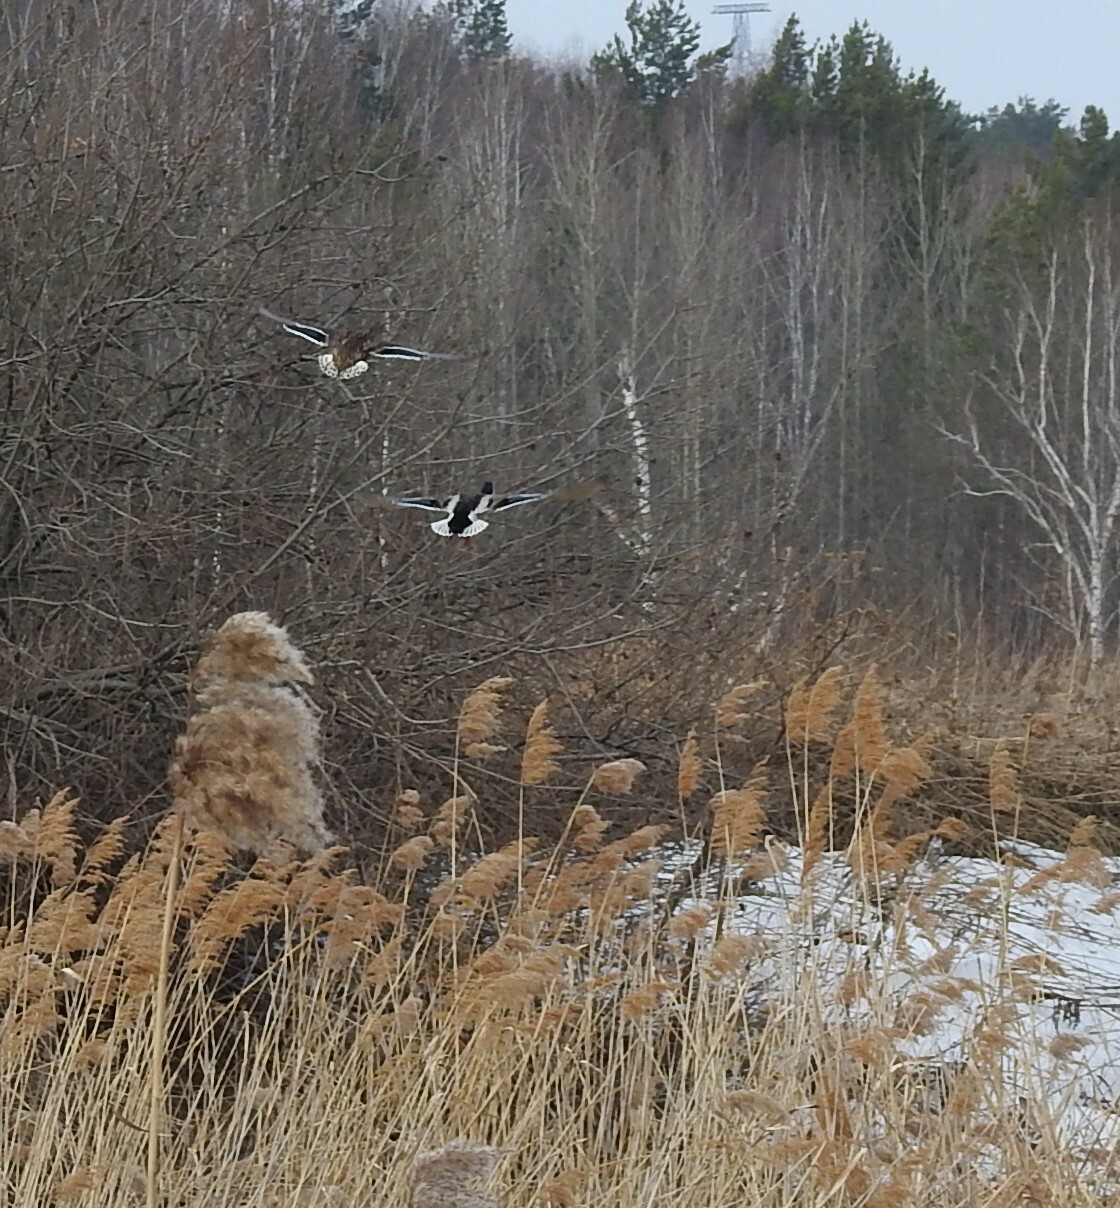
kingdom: Animalia
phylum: Chordata
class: Aves
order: Anseriformes
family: Anatidae
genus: Anas
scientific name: Anas platyrhynchos
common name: Mallard
